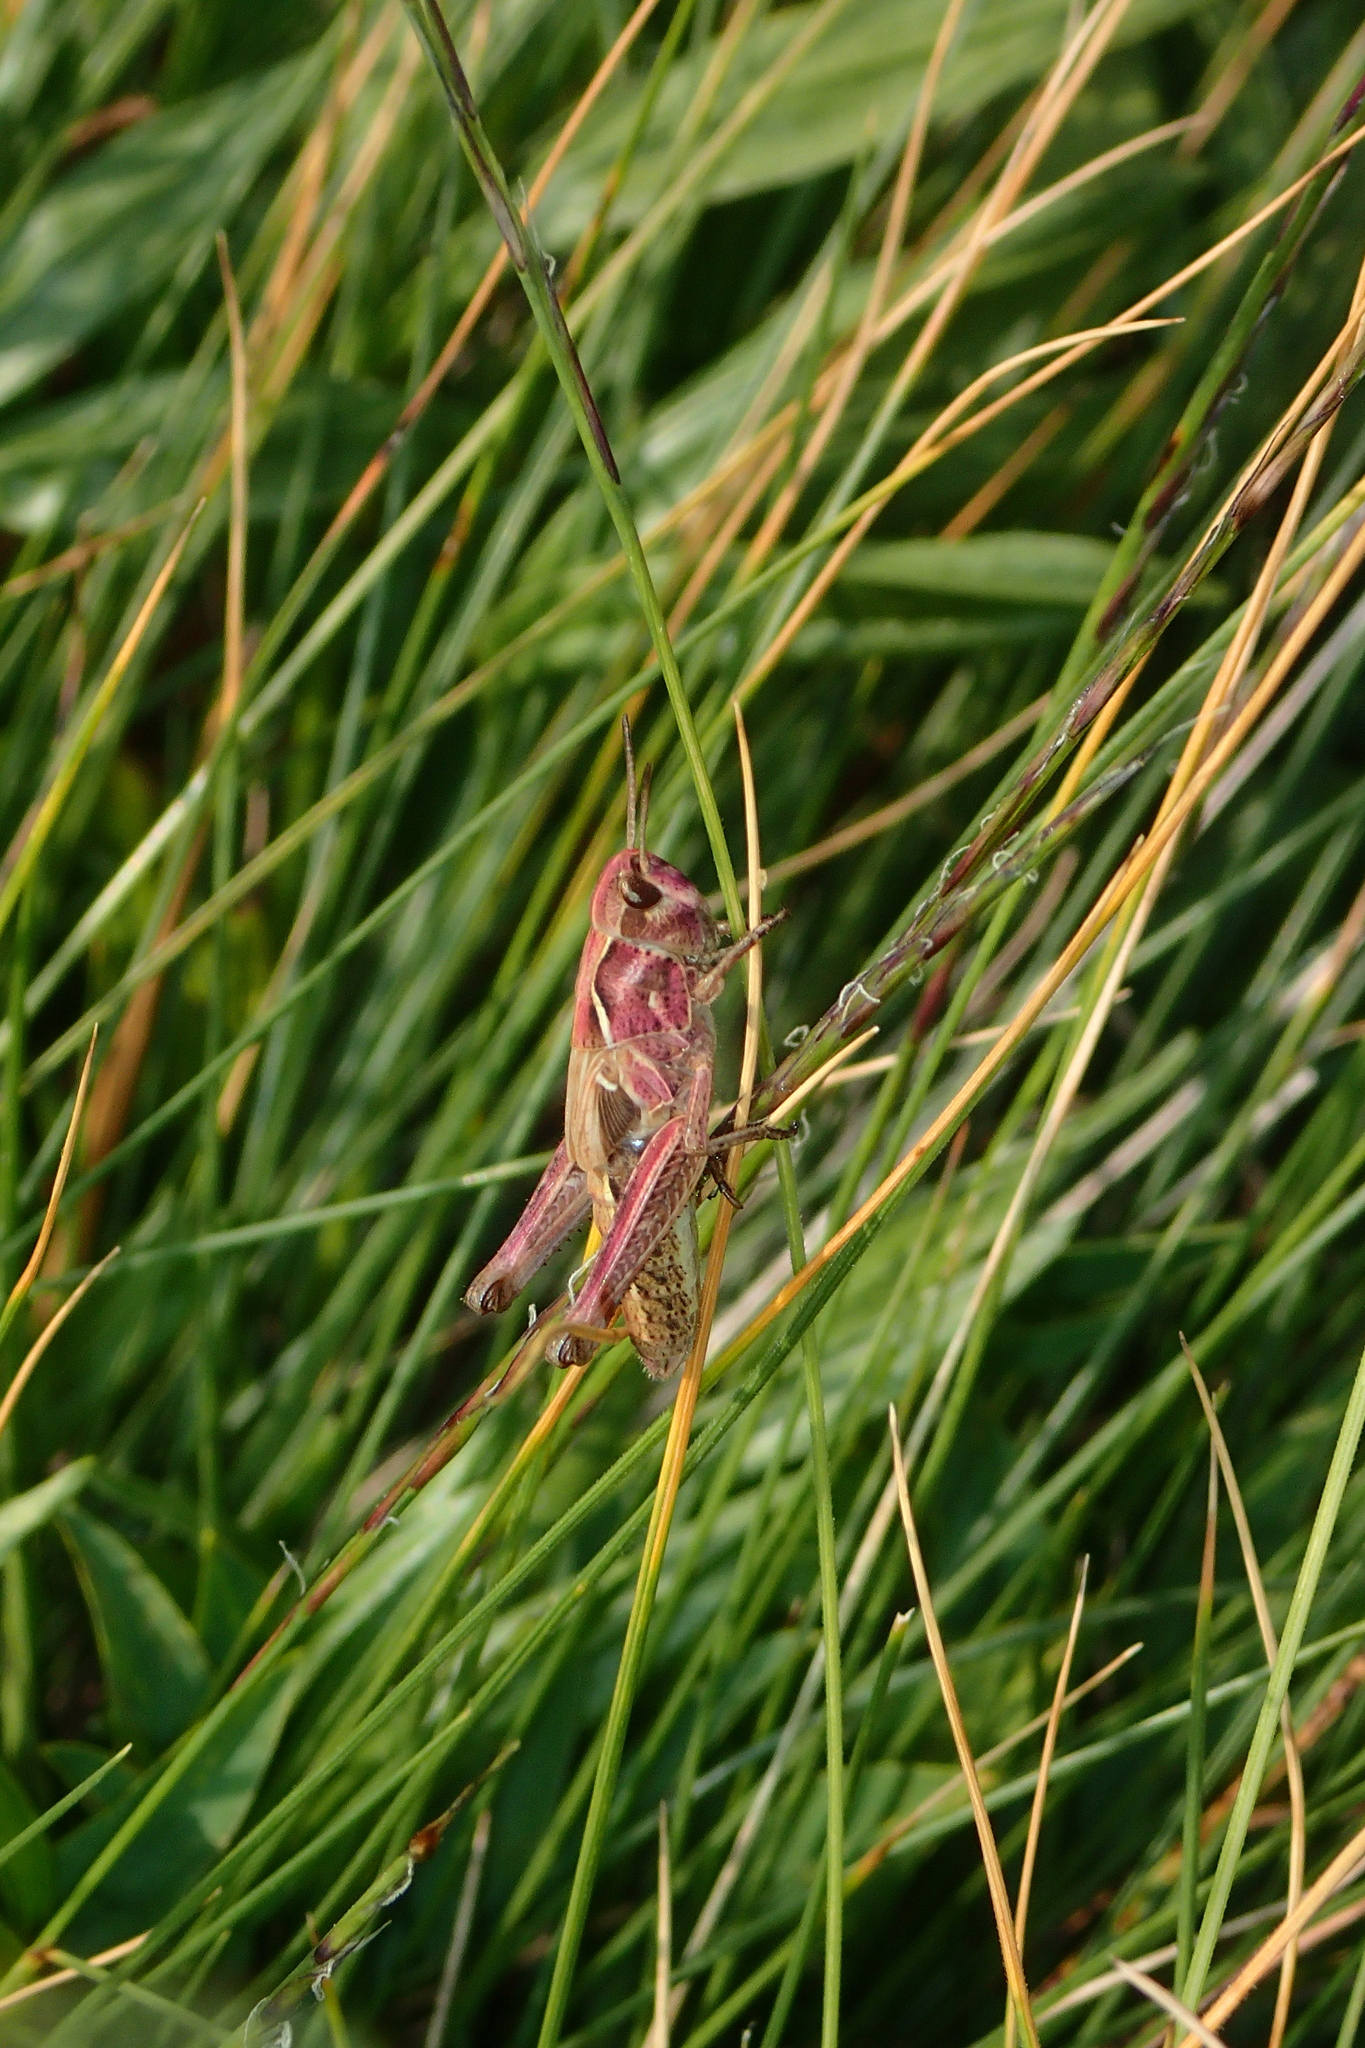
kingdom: Animalia
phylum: Arthropoda
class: Insecta
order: Orthoptera
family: Acrididae
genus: Gomphocerus
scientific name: Gomphocerus sibiricus
